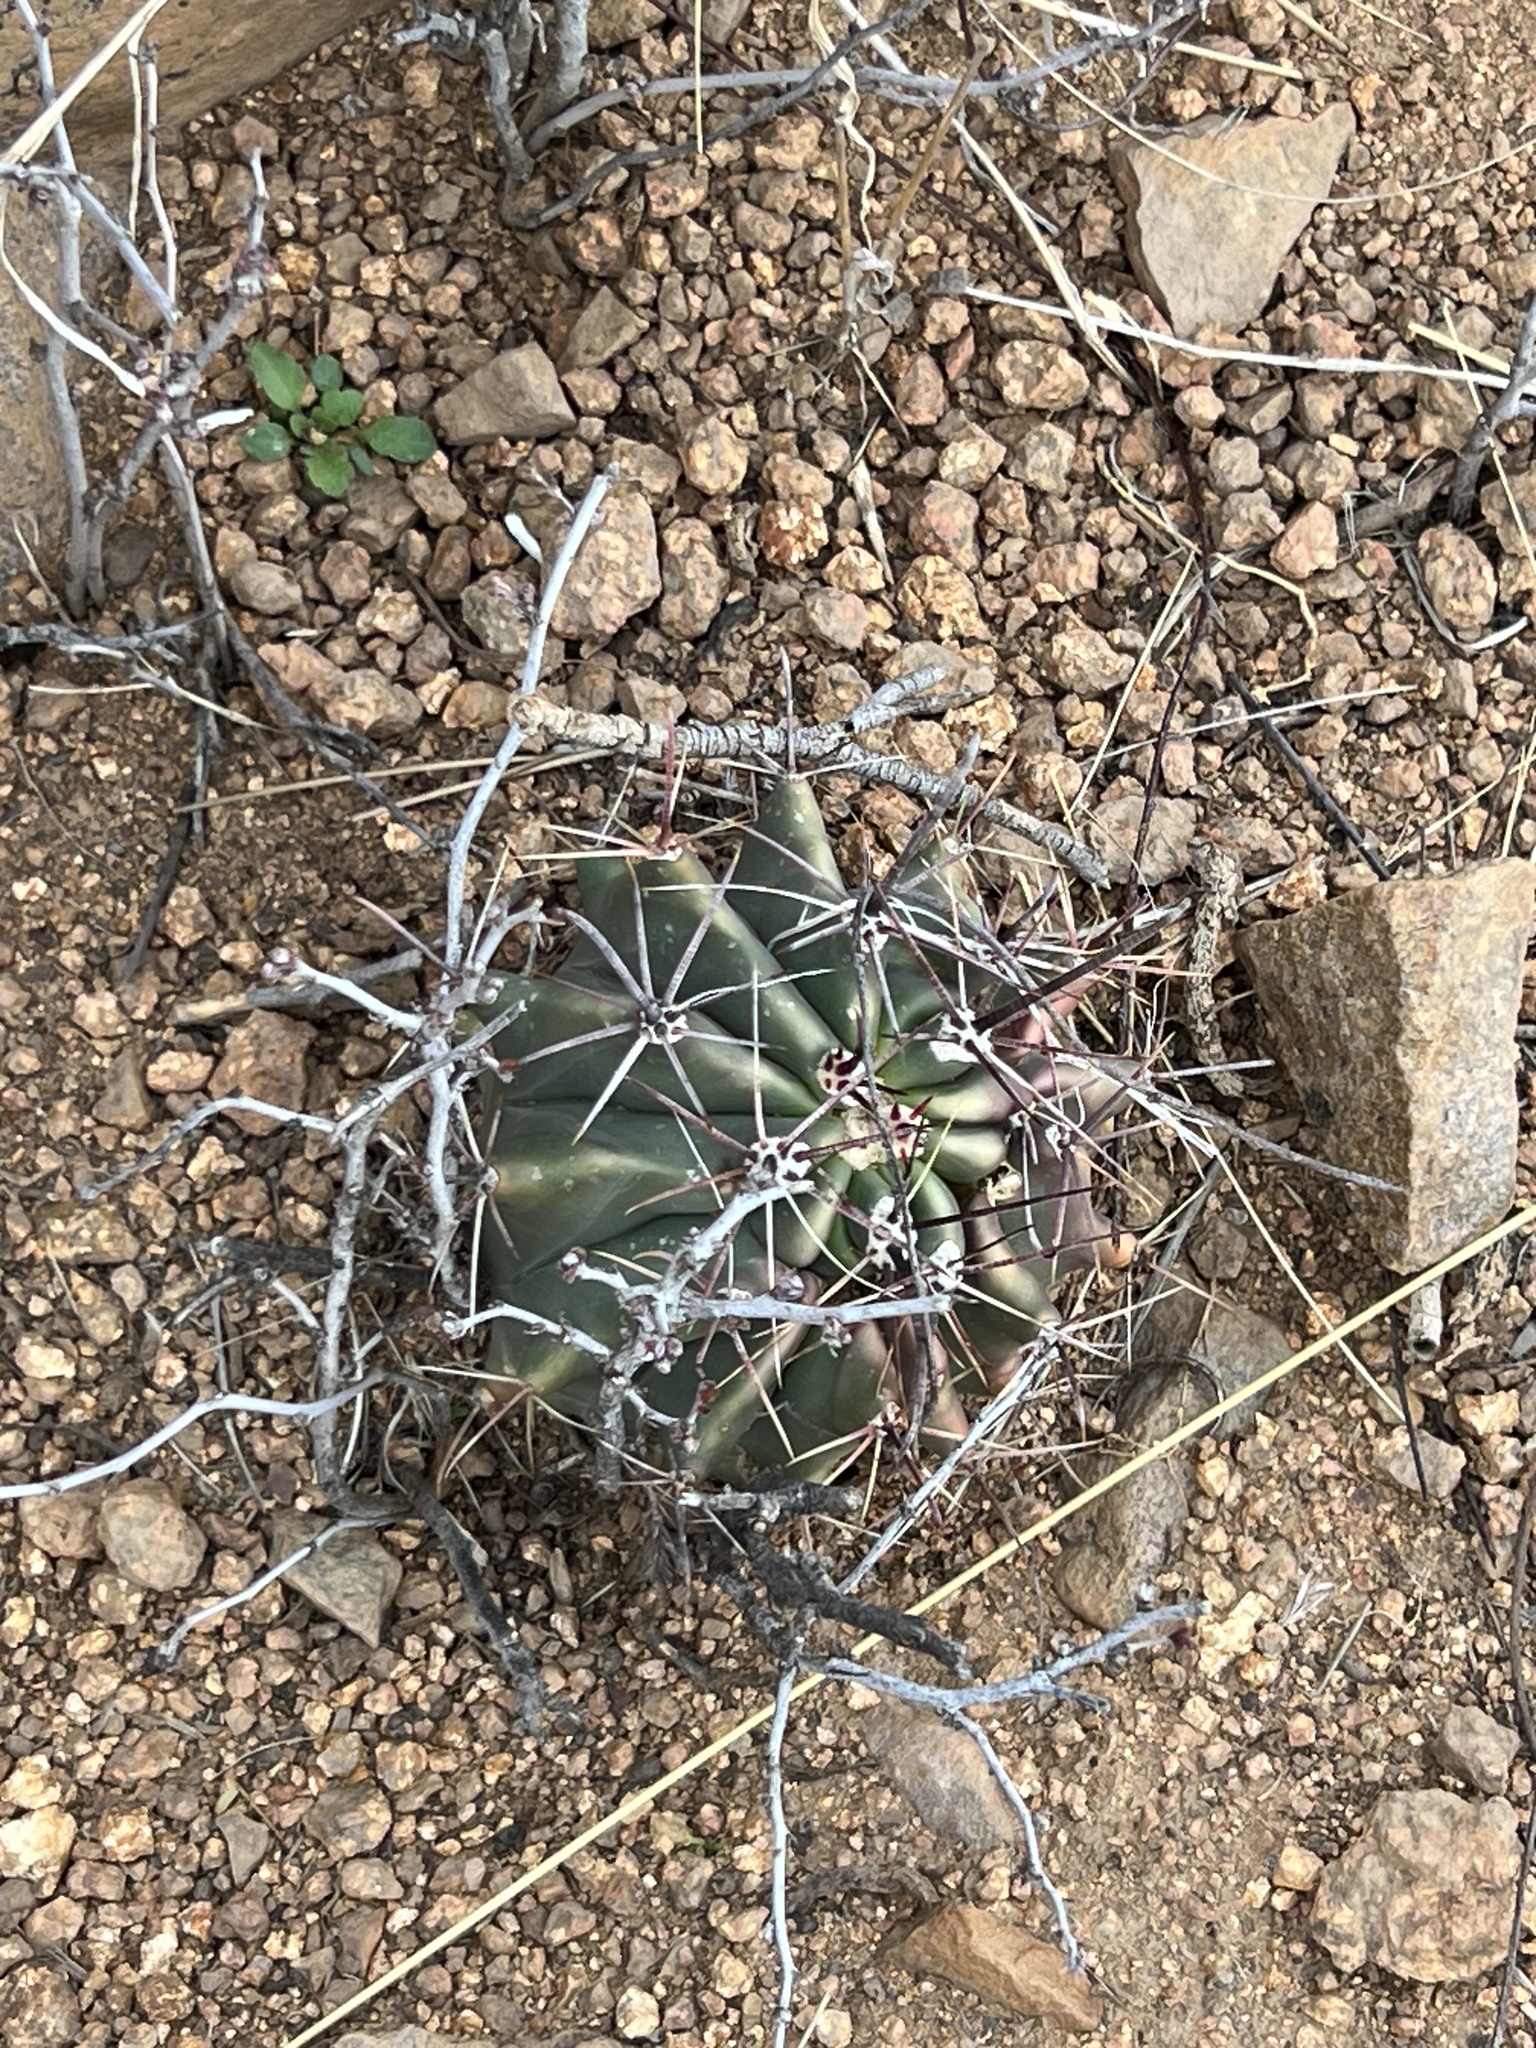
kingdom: Plantae
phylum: Tracheophyta
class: Magnoliopsida
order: Caryophyllales
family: Cactaceae
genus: Ferocactus
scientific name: Ferocactus wislizeni
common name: Candy barrel cactus
